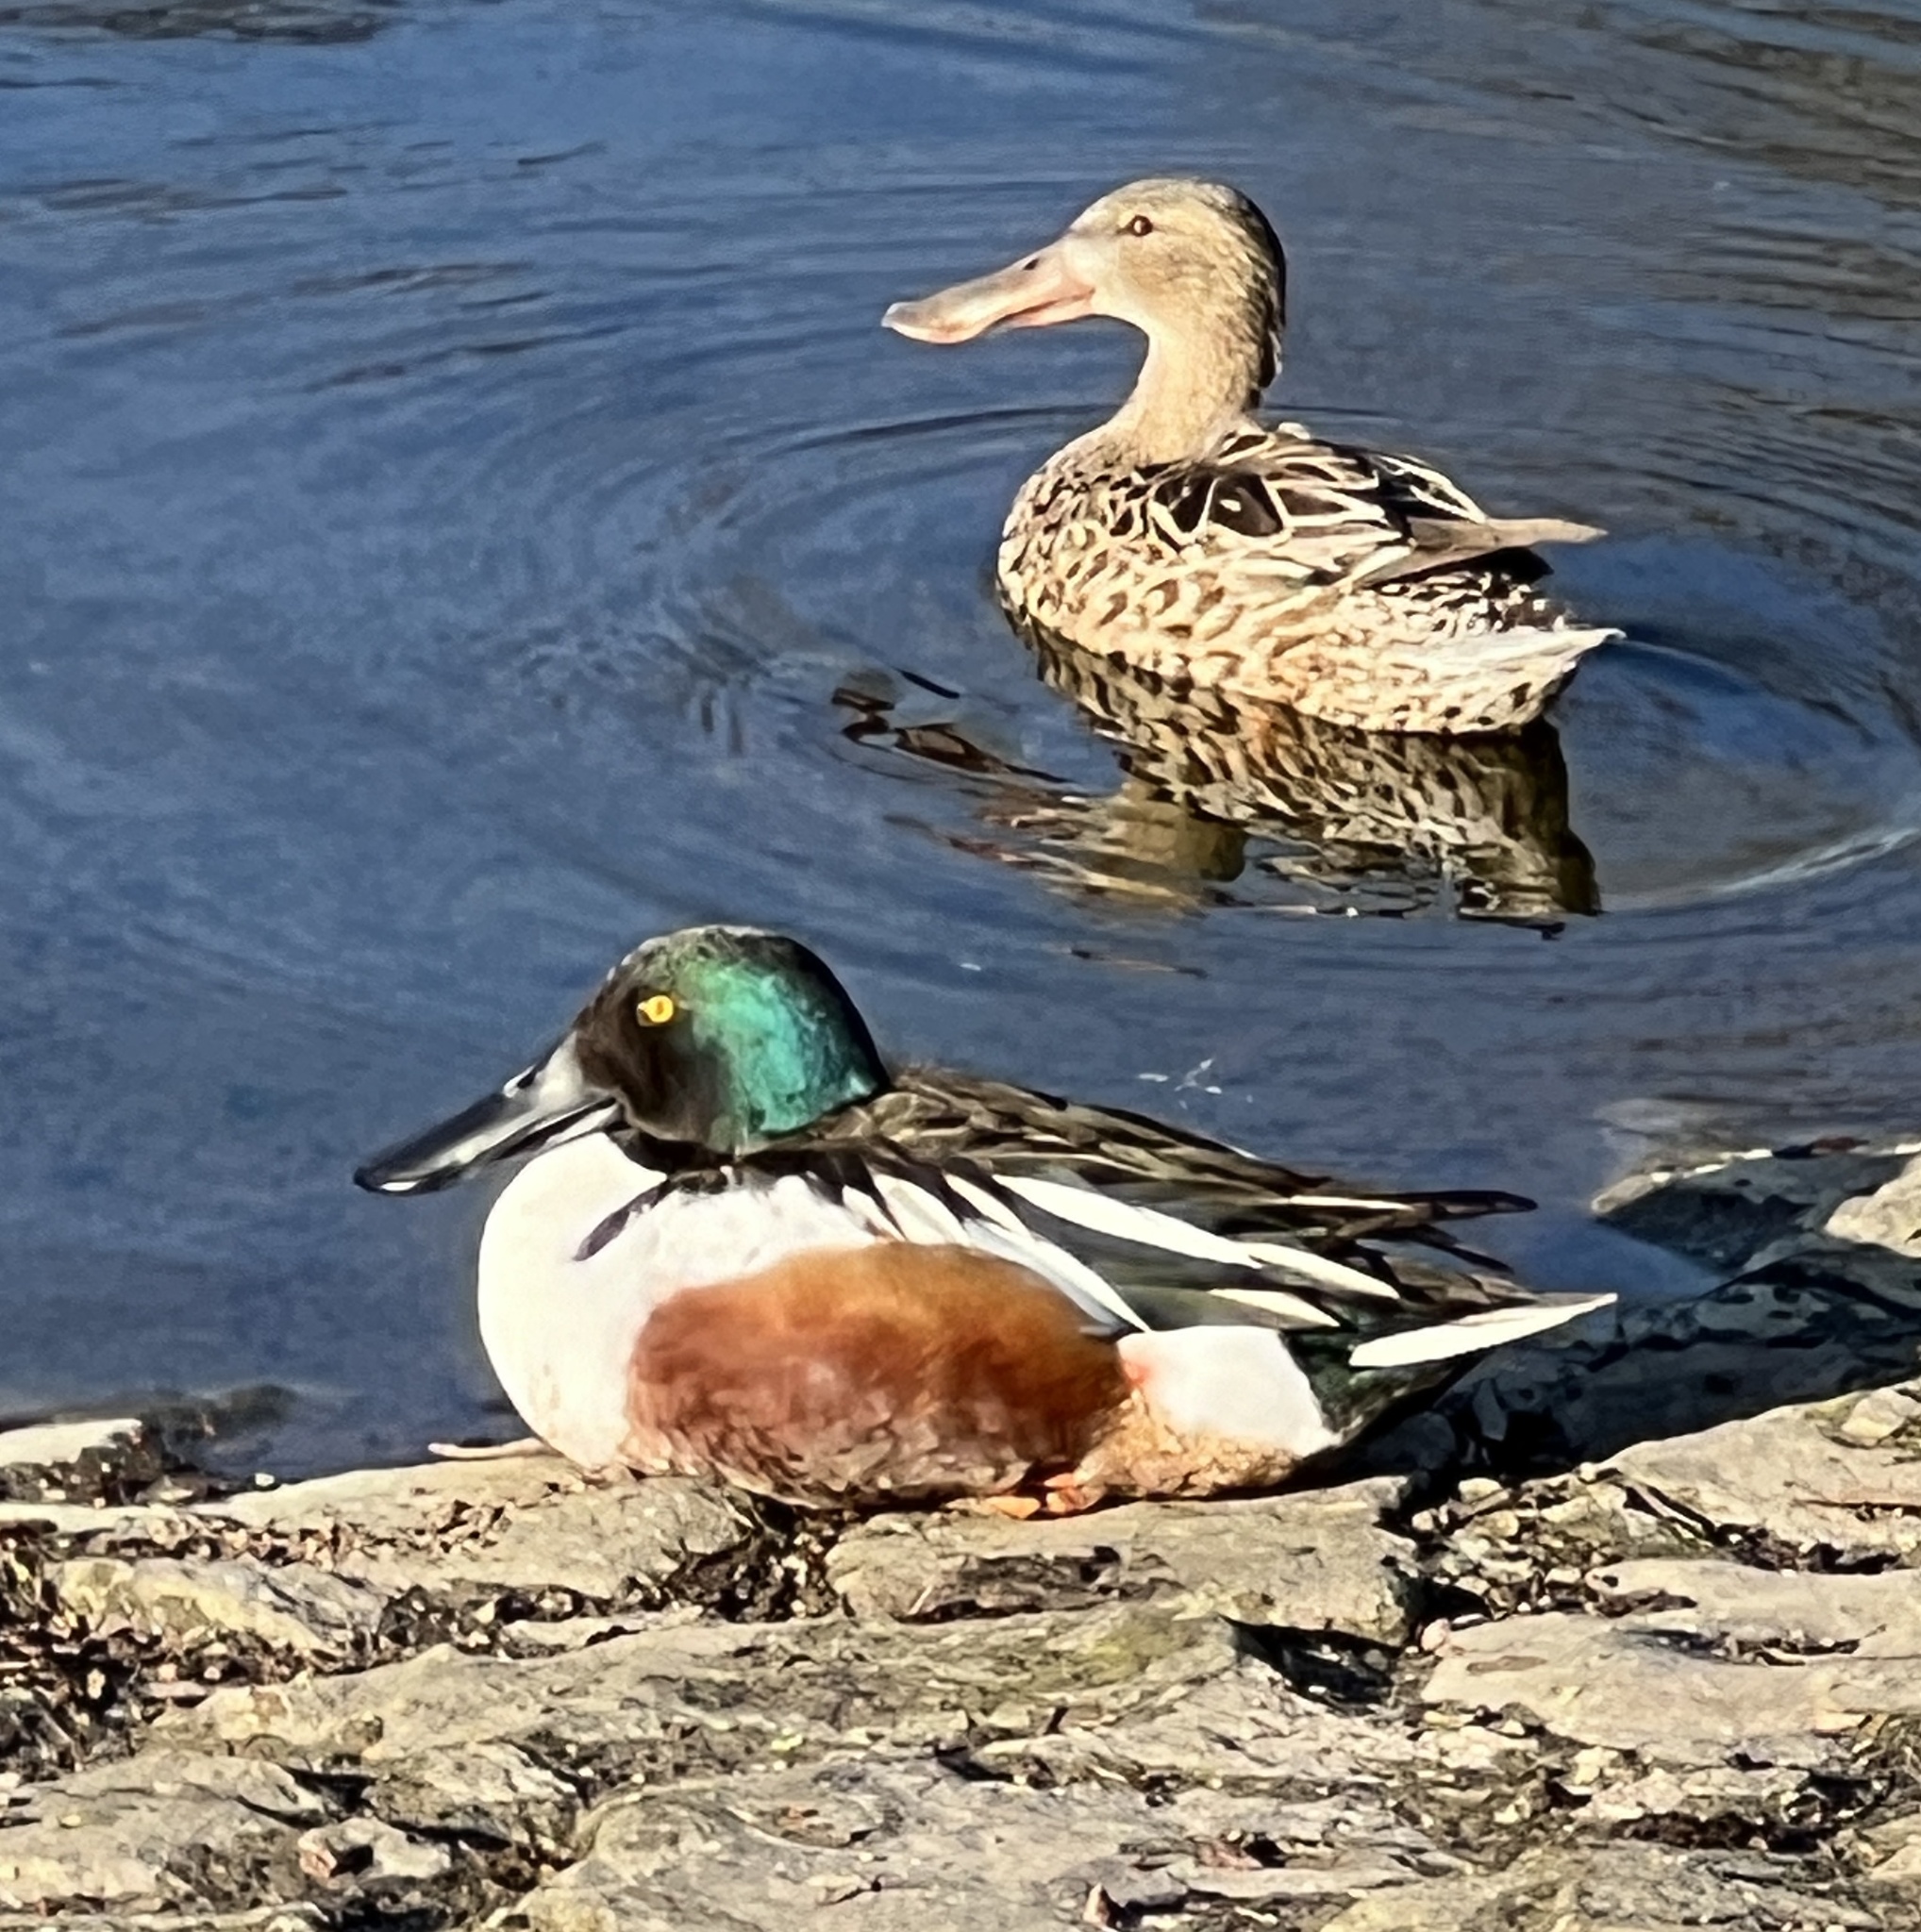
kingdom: Animalia
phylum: Chordata
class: Aves
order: Anseriformes
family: Anatidae
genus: Spatula
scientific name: Spatula clypeata
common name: Northern shoveler
